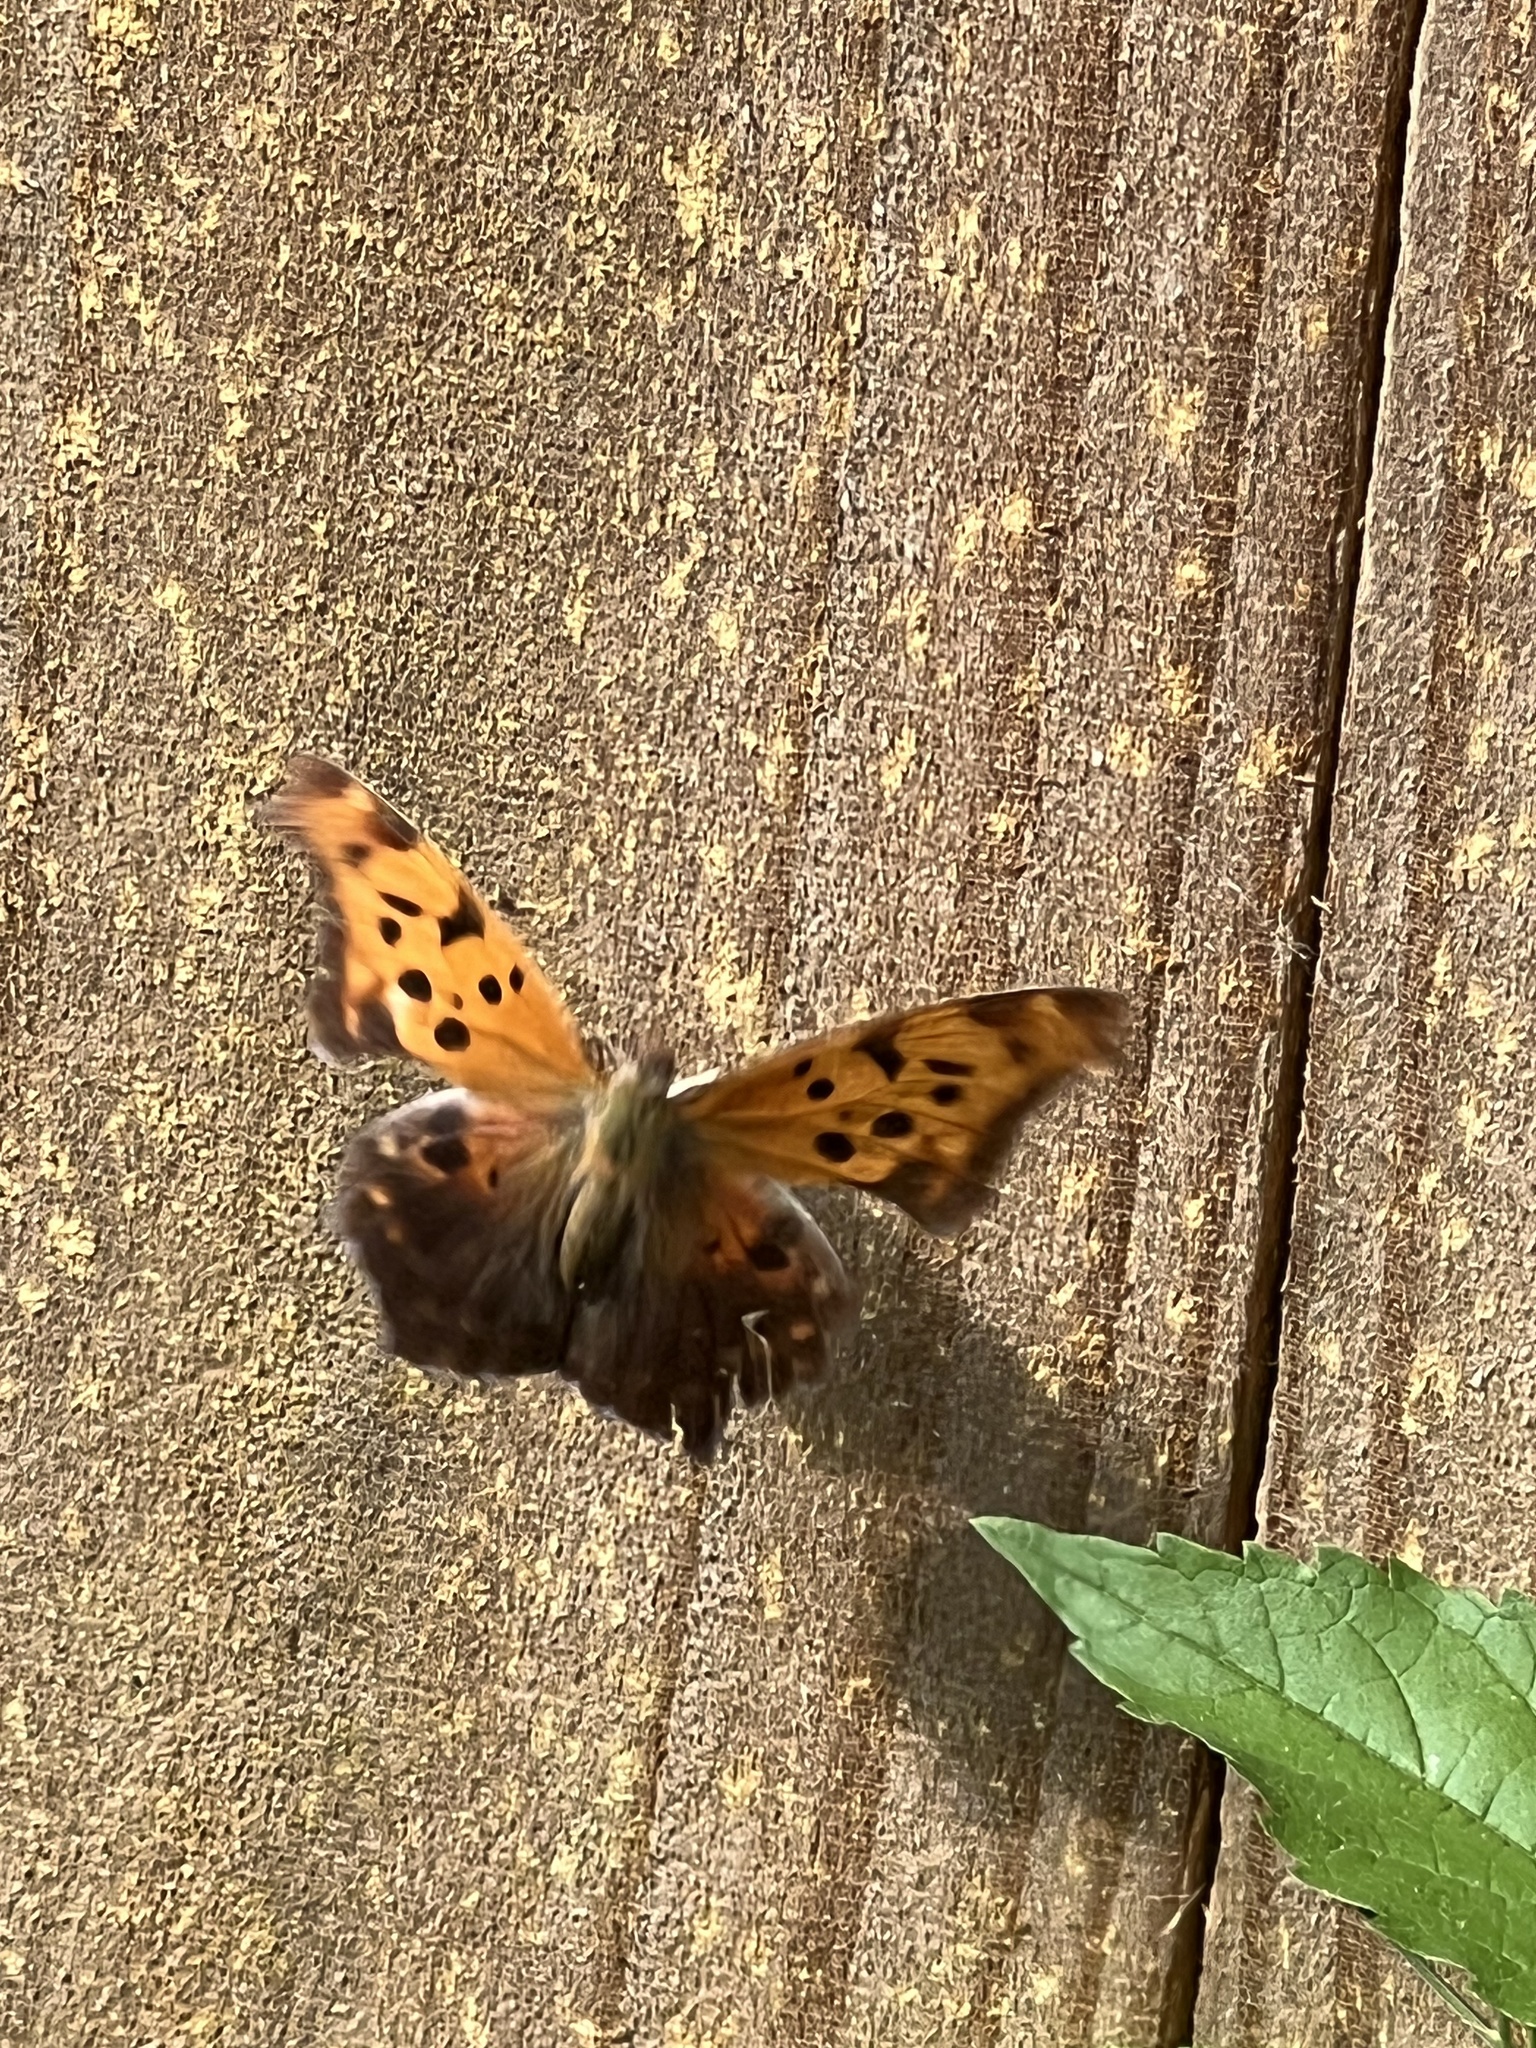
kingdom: Animalia
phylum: Arthropoda
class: Insecta
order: Lepidoptera
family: Nymphalidae
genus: Polygonia
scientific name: Polygonia interrogationis
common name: Question mark
